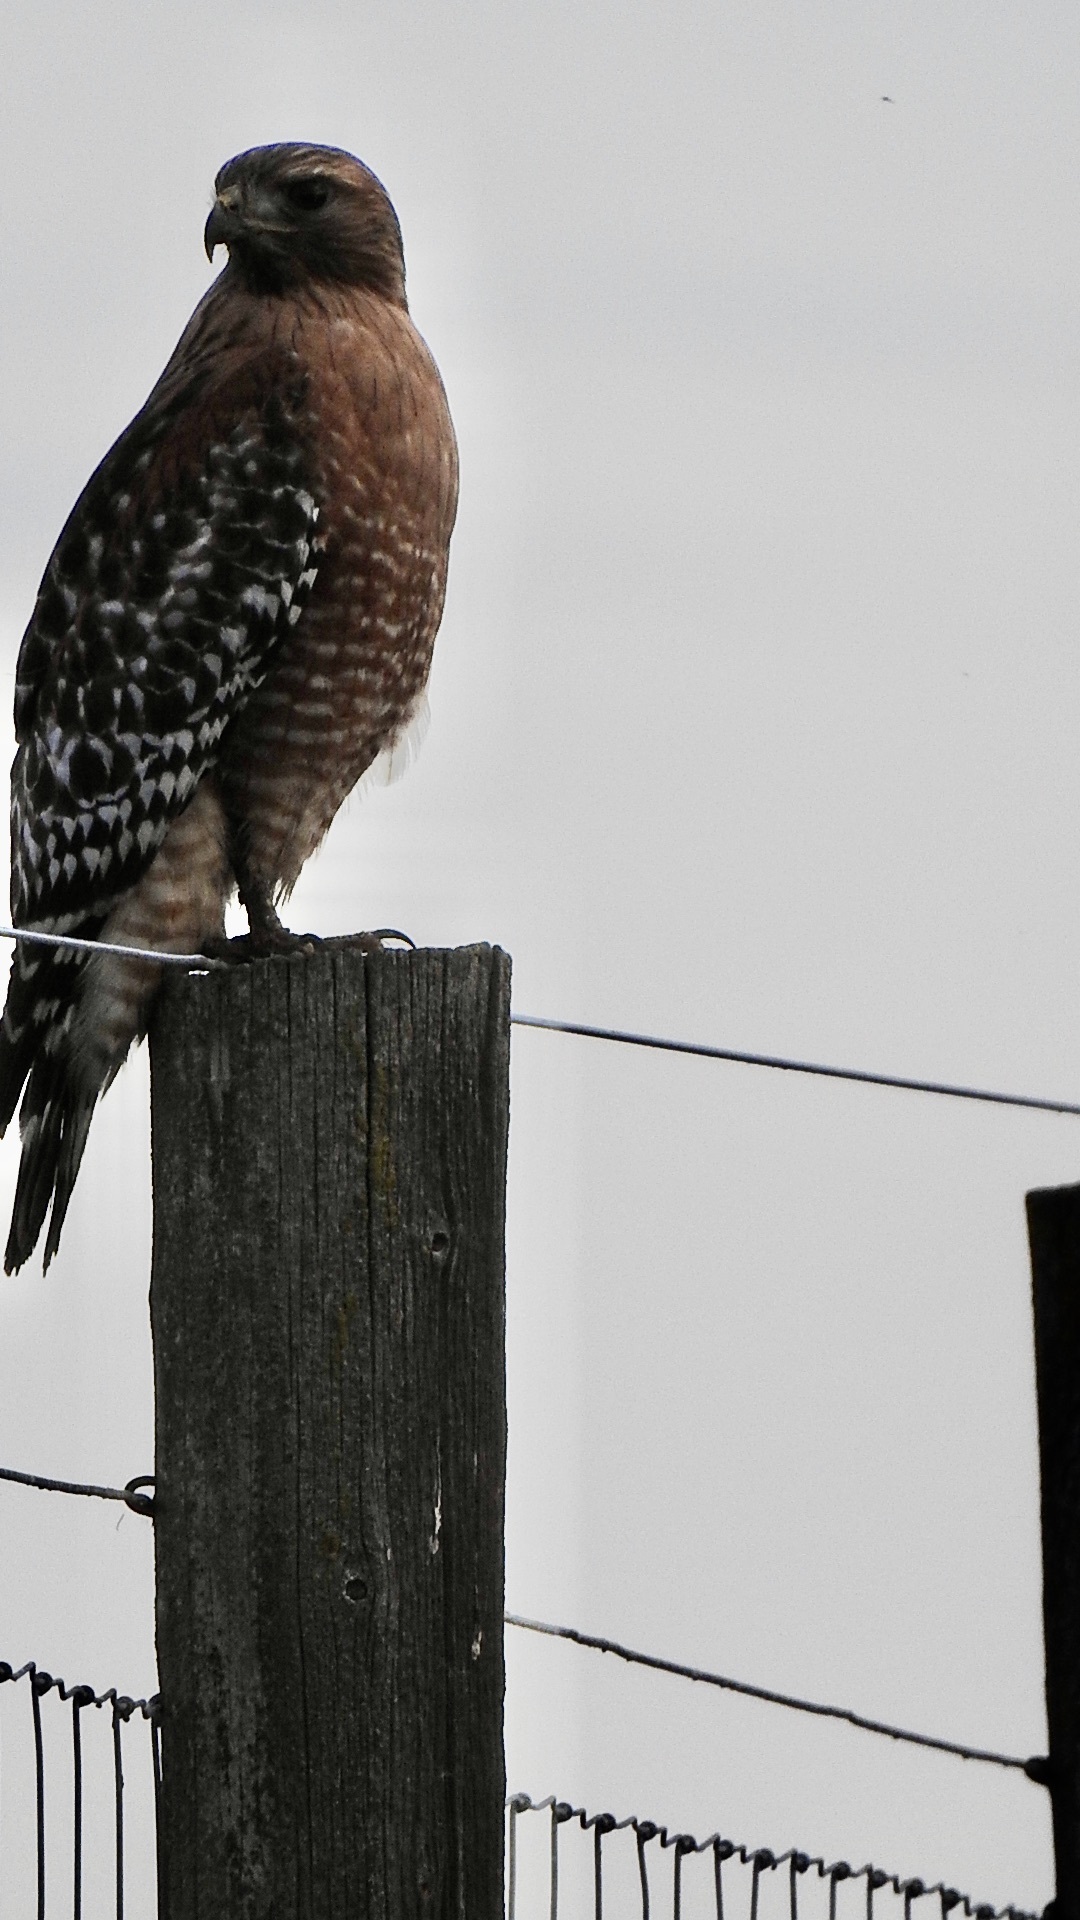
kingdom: Animalia
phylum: Chordata
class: Aves
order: Accipitriformes
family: Accipitridae
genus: Buteo
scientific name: Buteo lineatus
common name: Red-shouldered hawk
